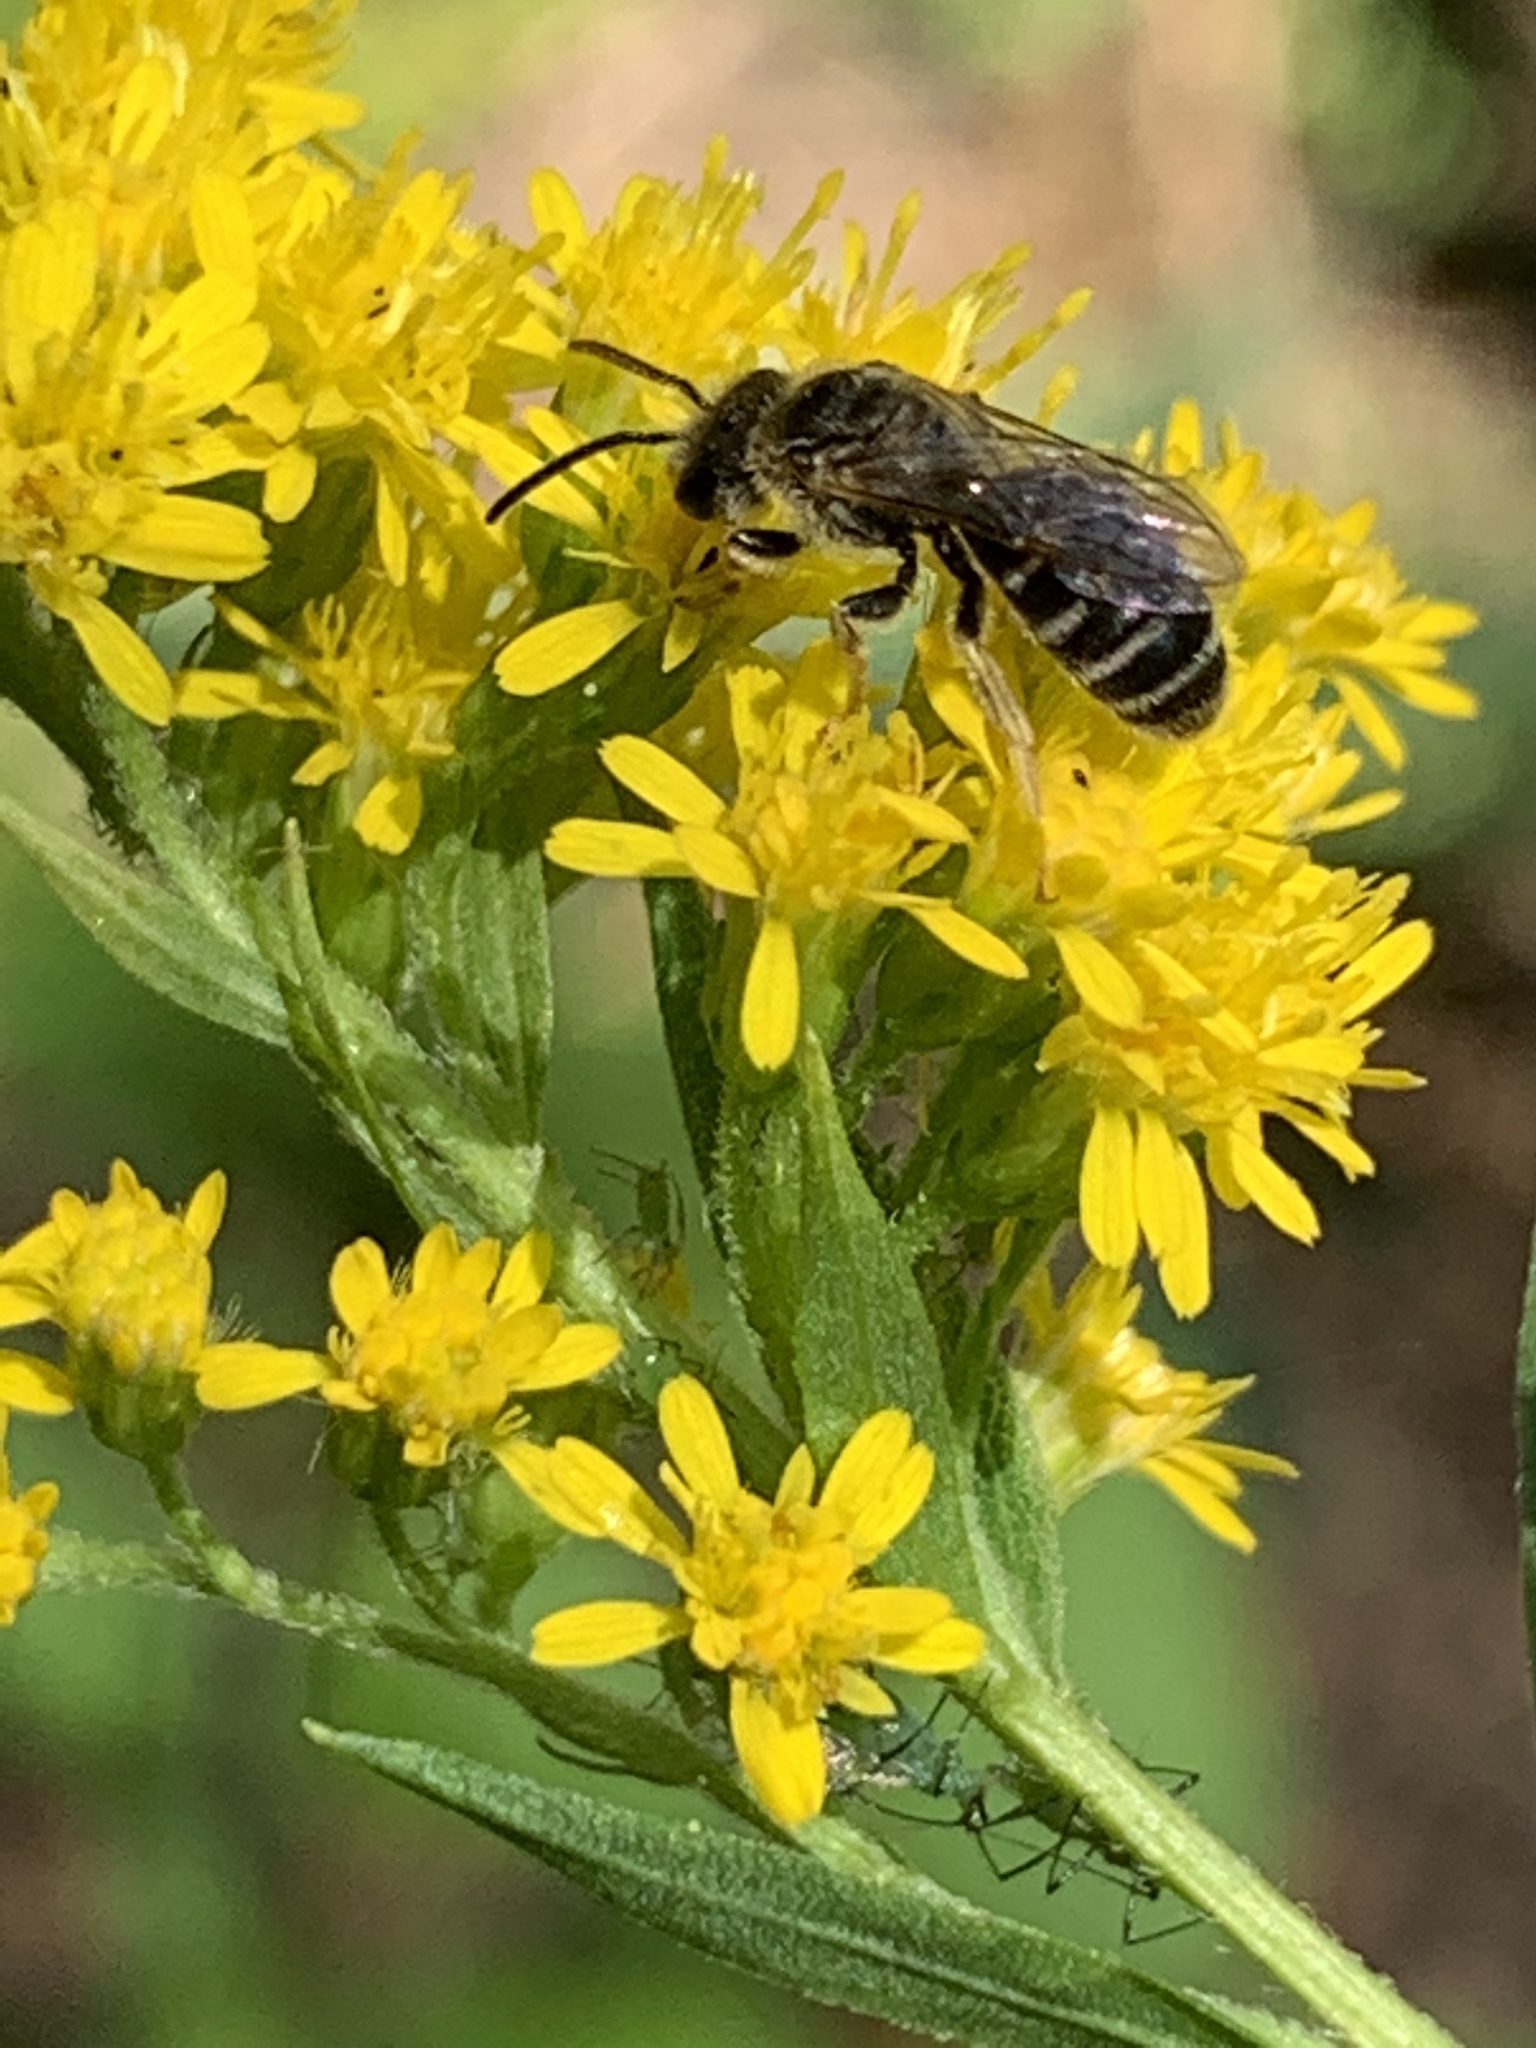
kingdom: Animalia
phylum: Arthropoda
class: Insecta
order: Hymenoptera
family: Halictidae
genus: Halictus
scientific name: Halictus ligatus
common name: Ligated furrow bee
